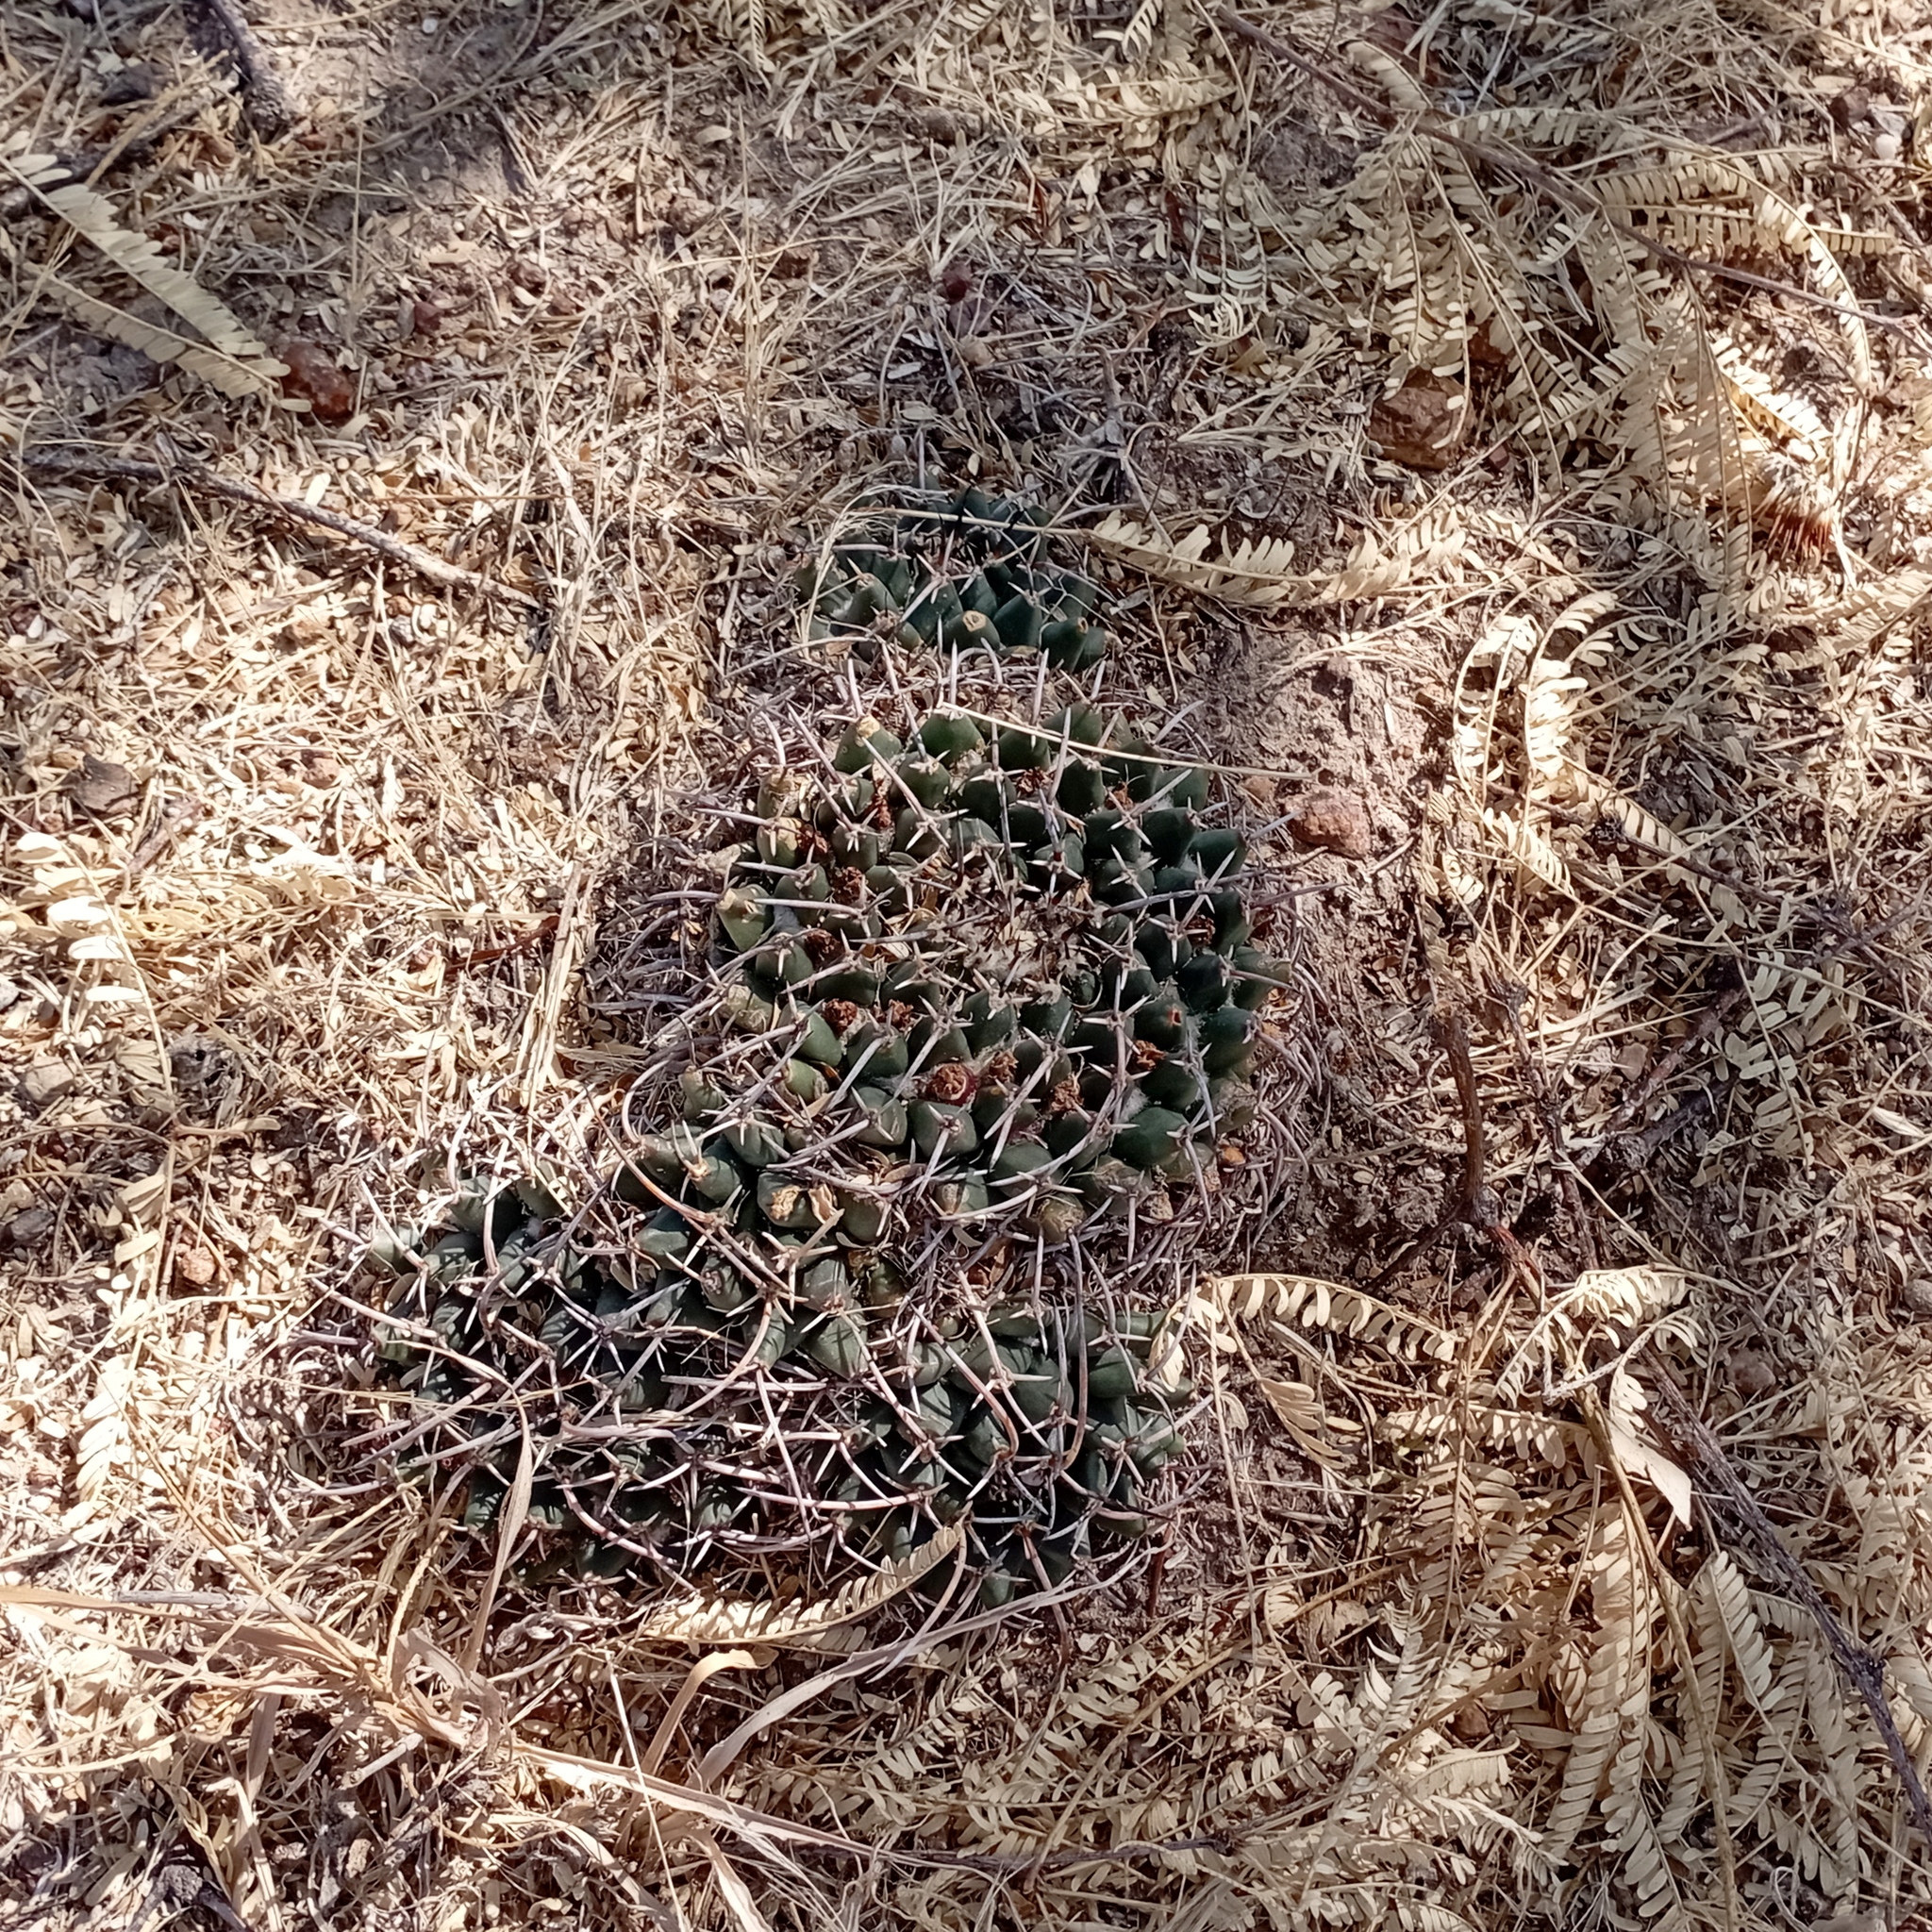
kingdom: Plantae
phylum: Tracheophyta
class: Magnoliopsida
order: Caryophyllales
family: Cactaceae
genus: Mammillaria
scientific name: Mammillaria magnimamma
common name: Mexican pincushion
